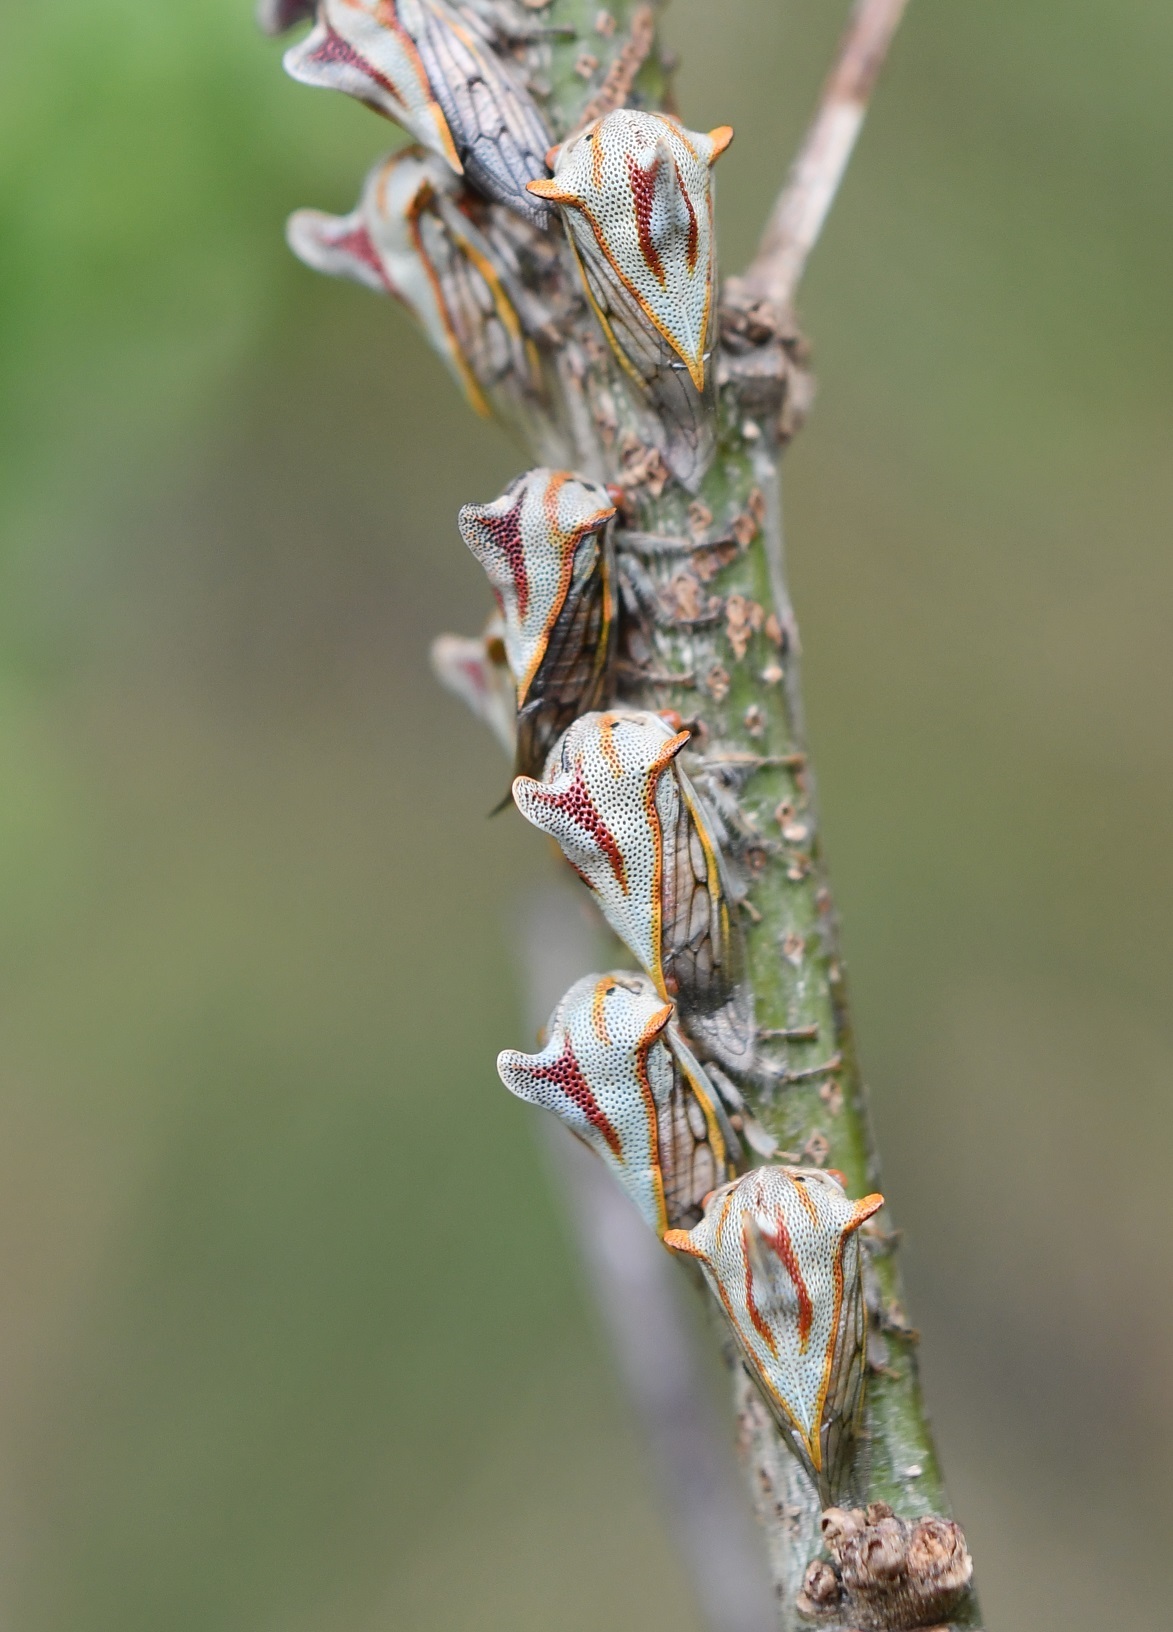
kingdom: Animalia
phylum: Arthropoda
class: Insecta
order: Hemiptera
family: Membracidae
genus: Platycotis
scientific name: Platycotis tuberculata
